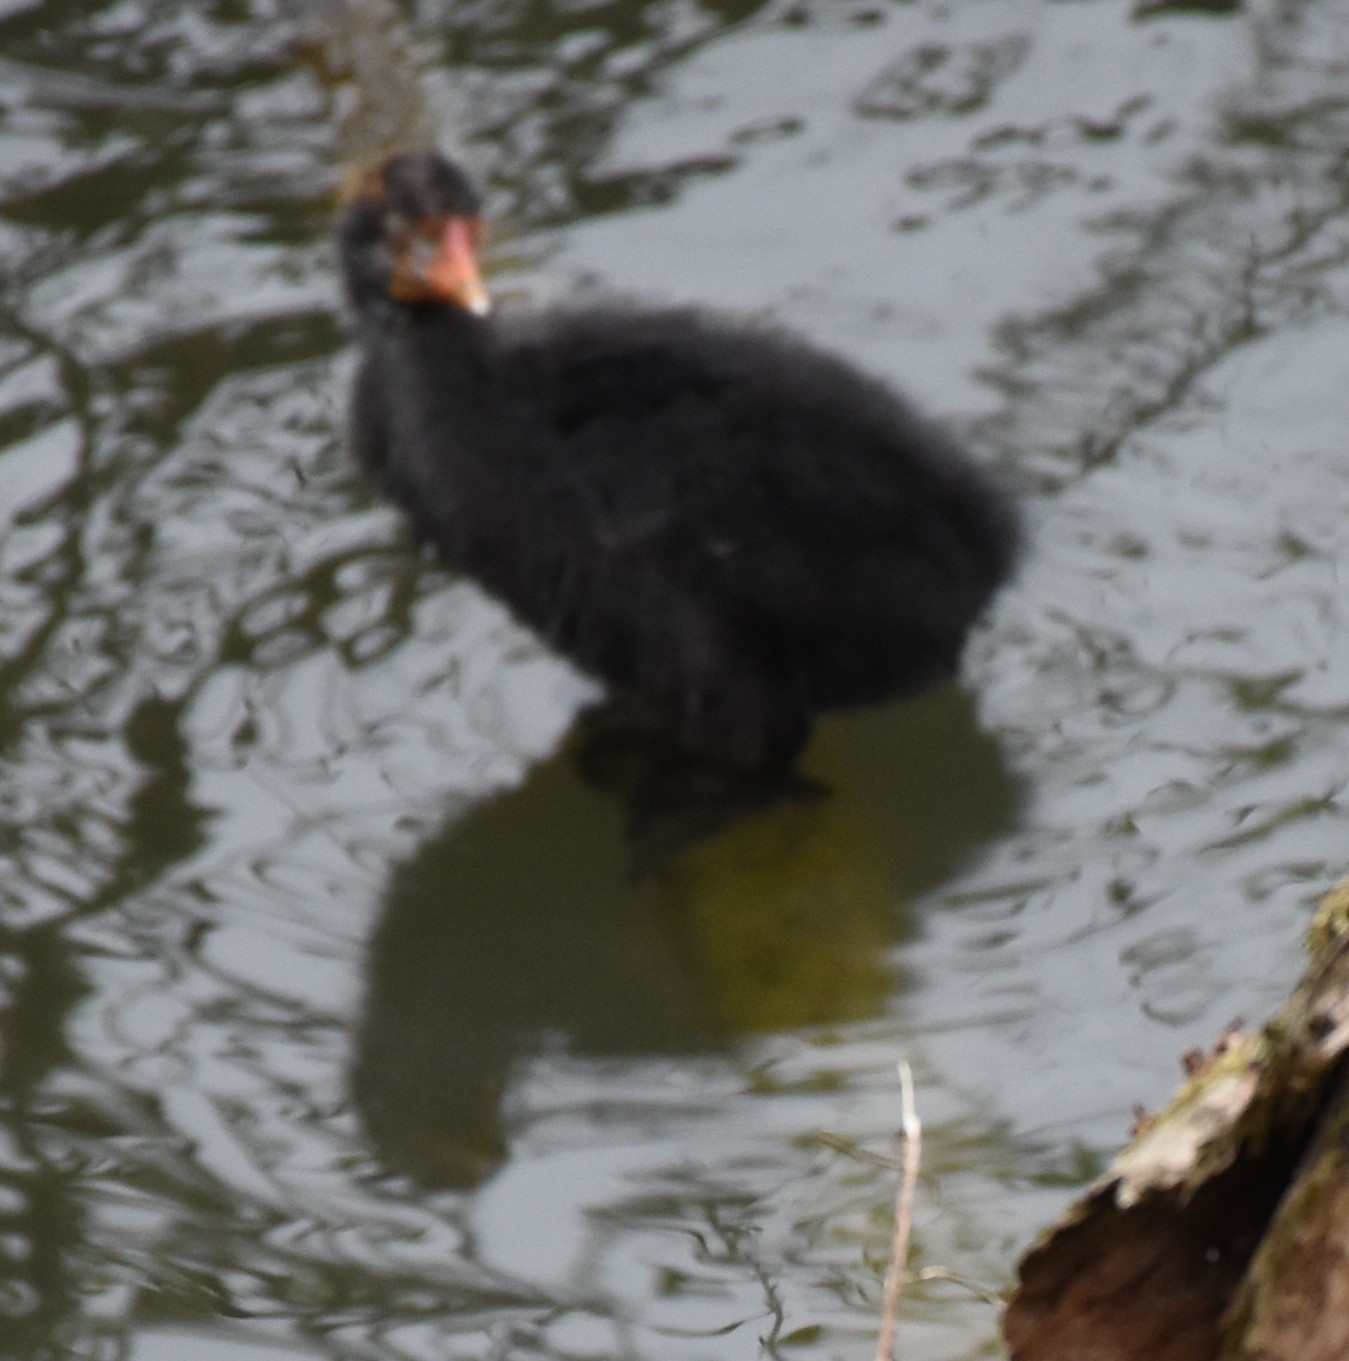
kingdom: Animalia
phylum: Chordata
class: Aves
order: Gruiformes
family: Rallidae
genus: Fulica
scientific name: Fulica atra
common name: Eurasian coot
